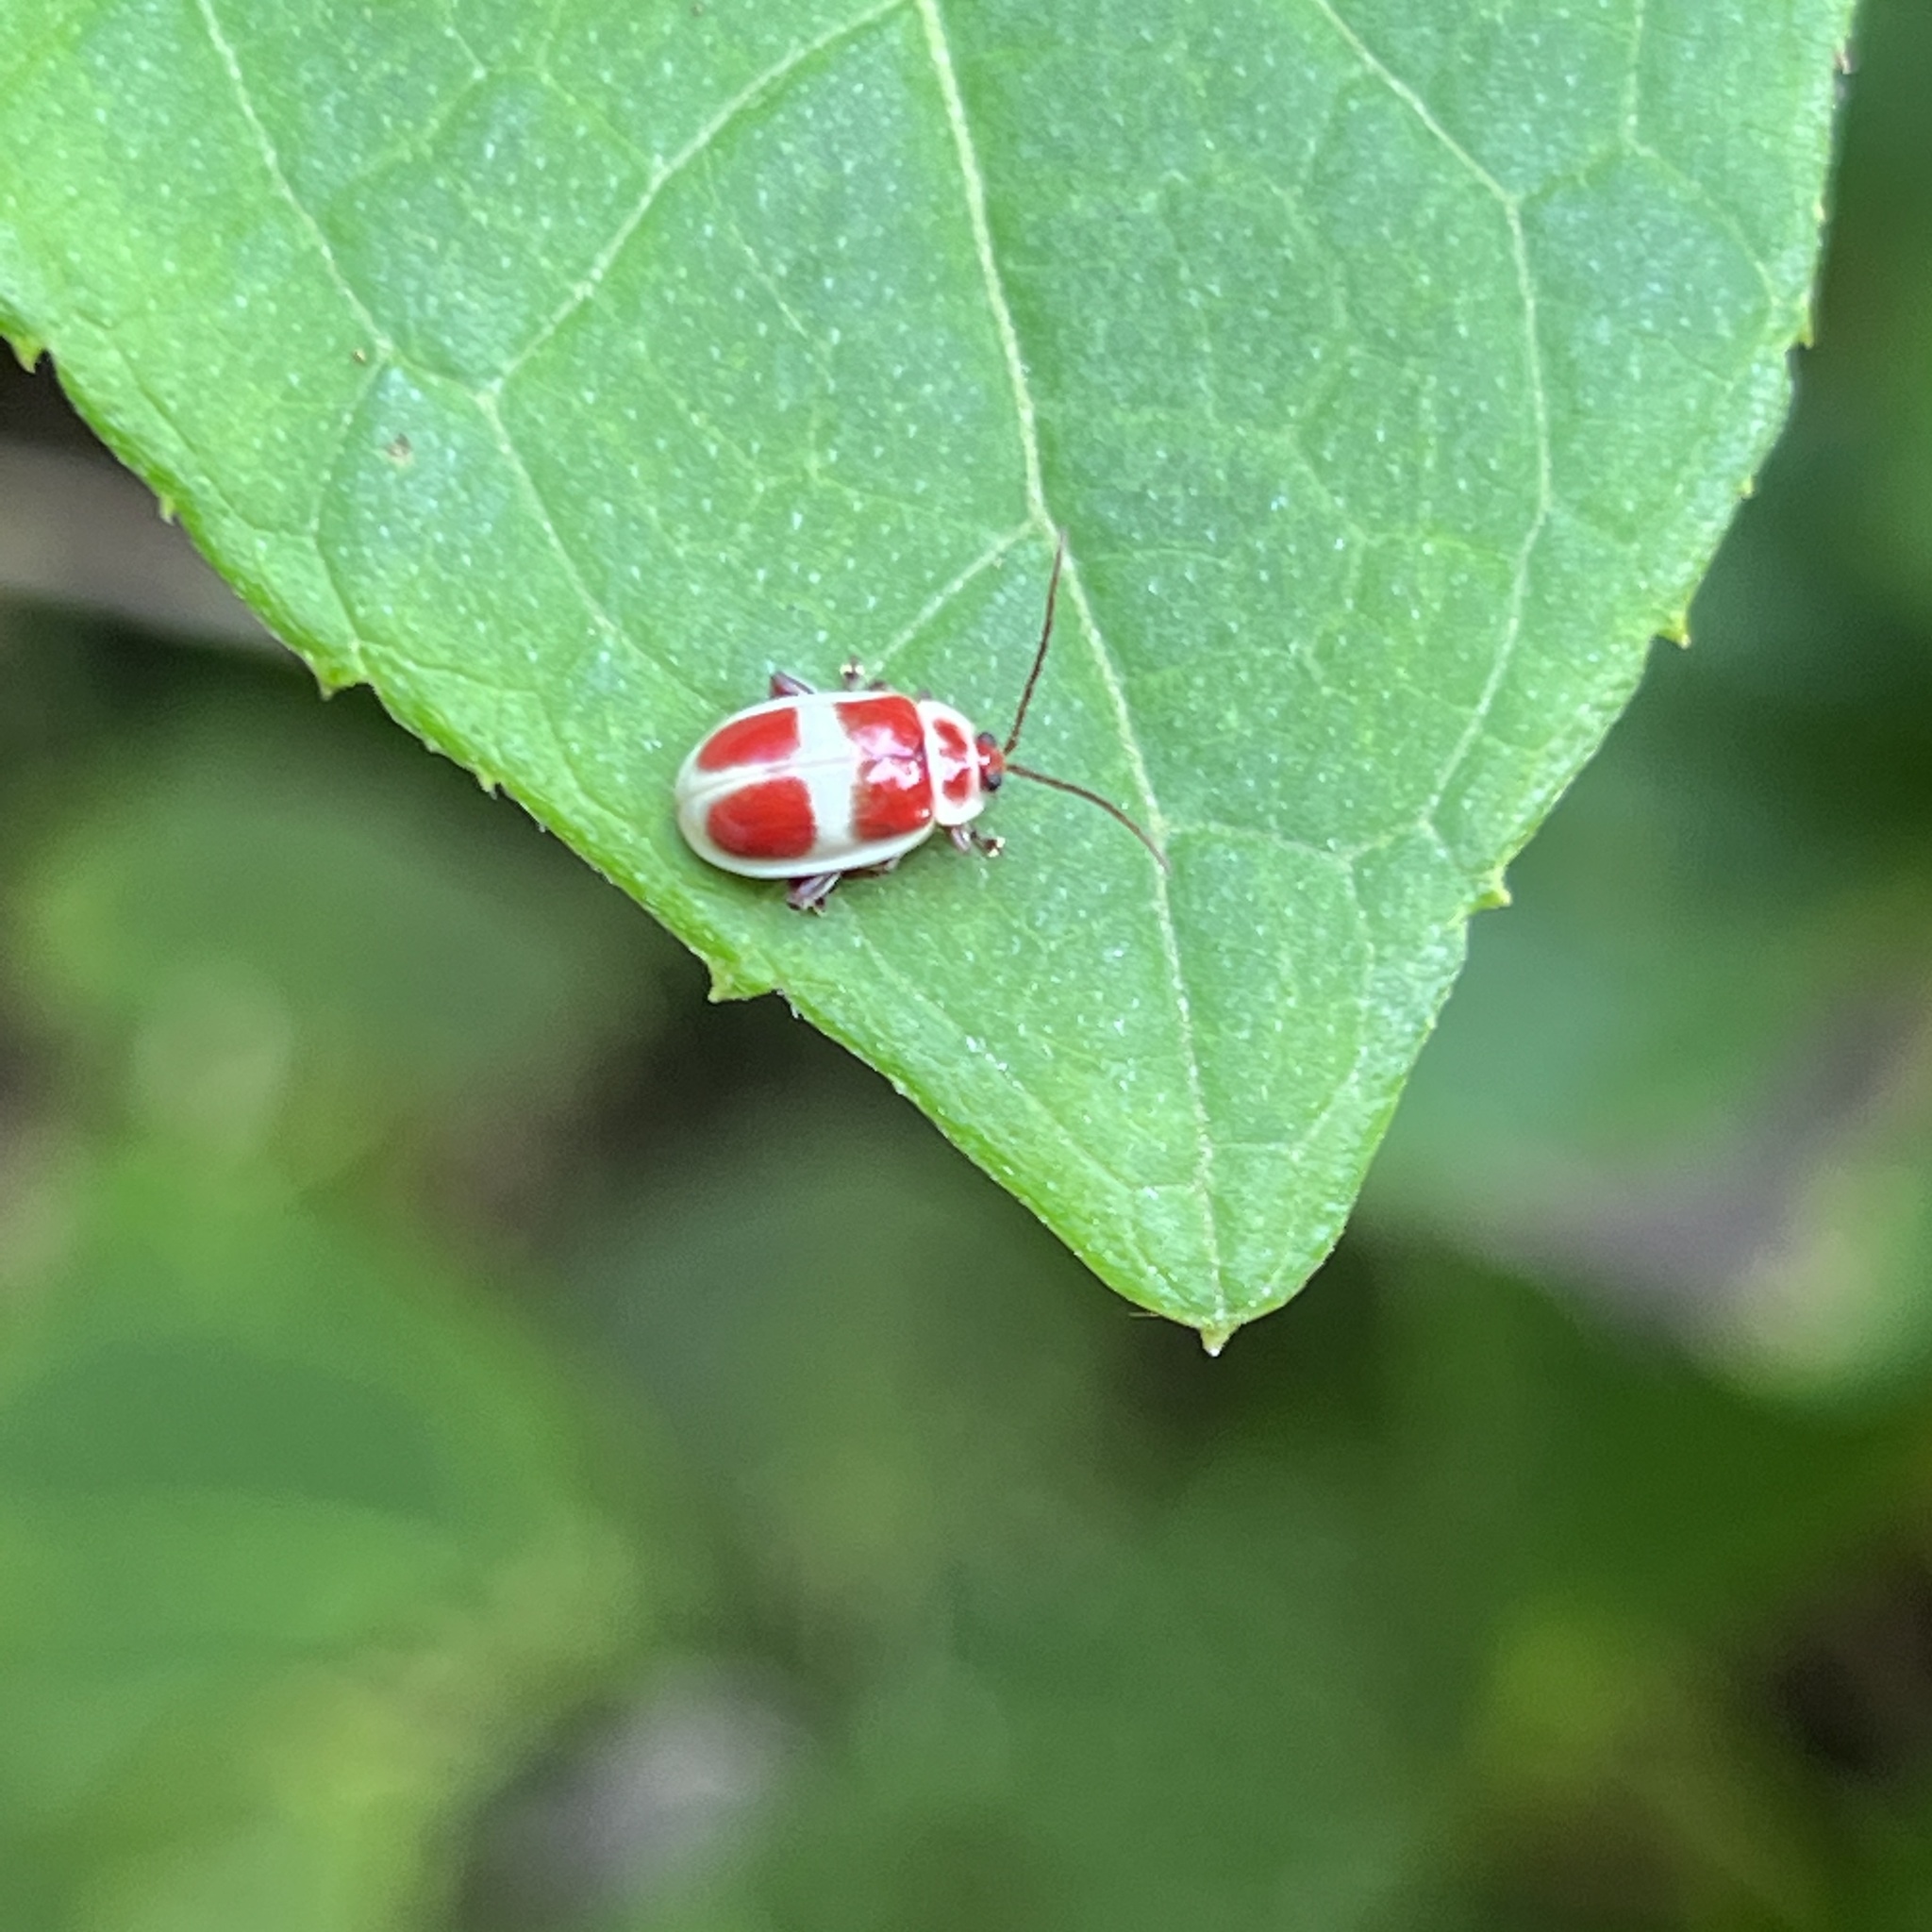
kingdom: Animalia
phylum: Arthropoda
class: Insecta
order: Coleoptera
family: Chrysomelidae
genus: Asphaera
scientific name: Asphaera discicollis
